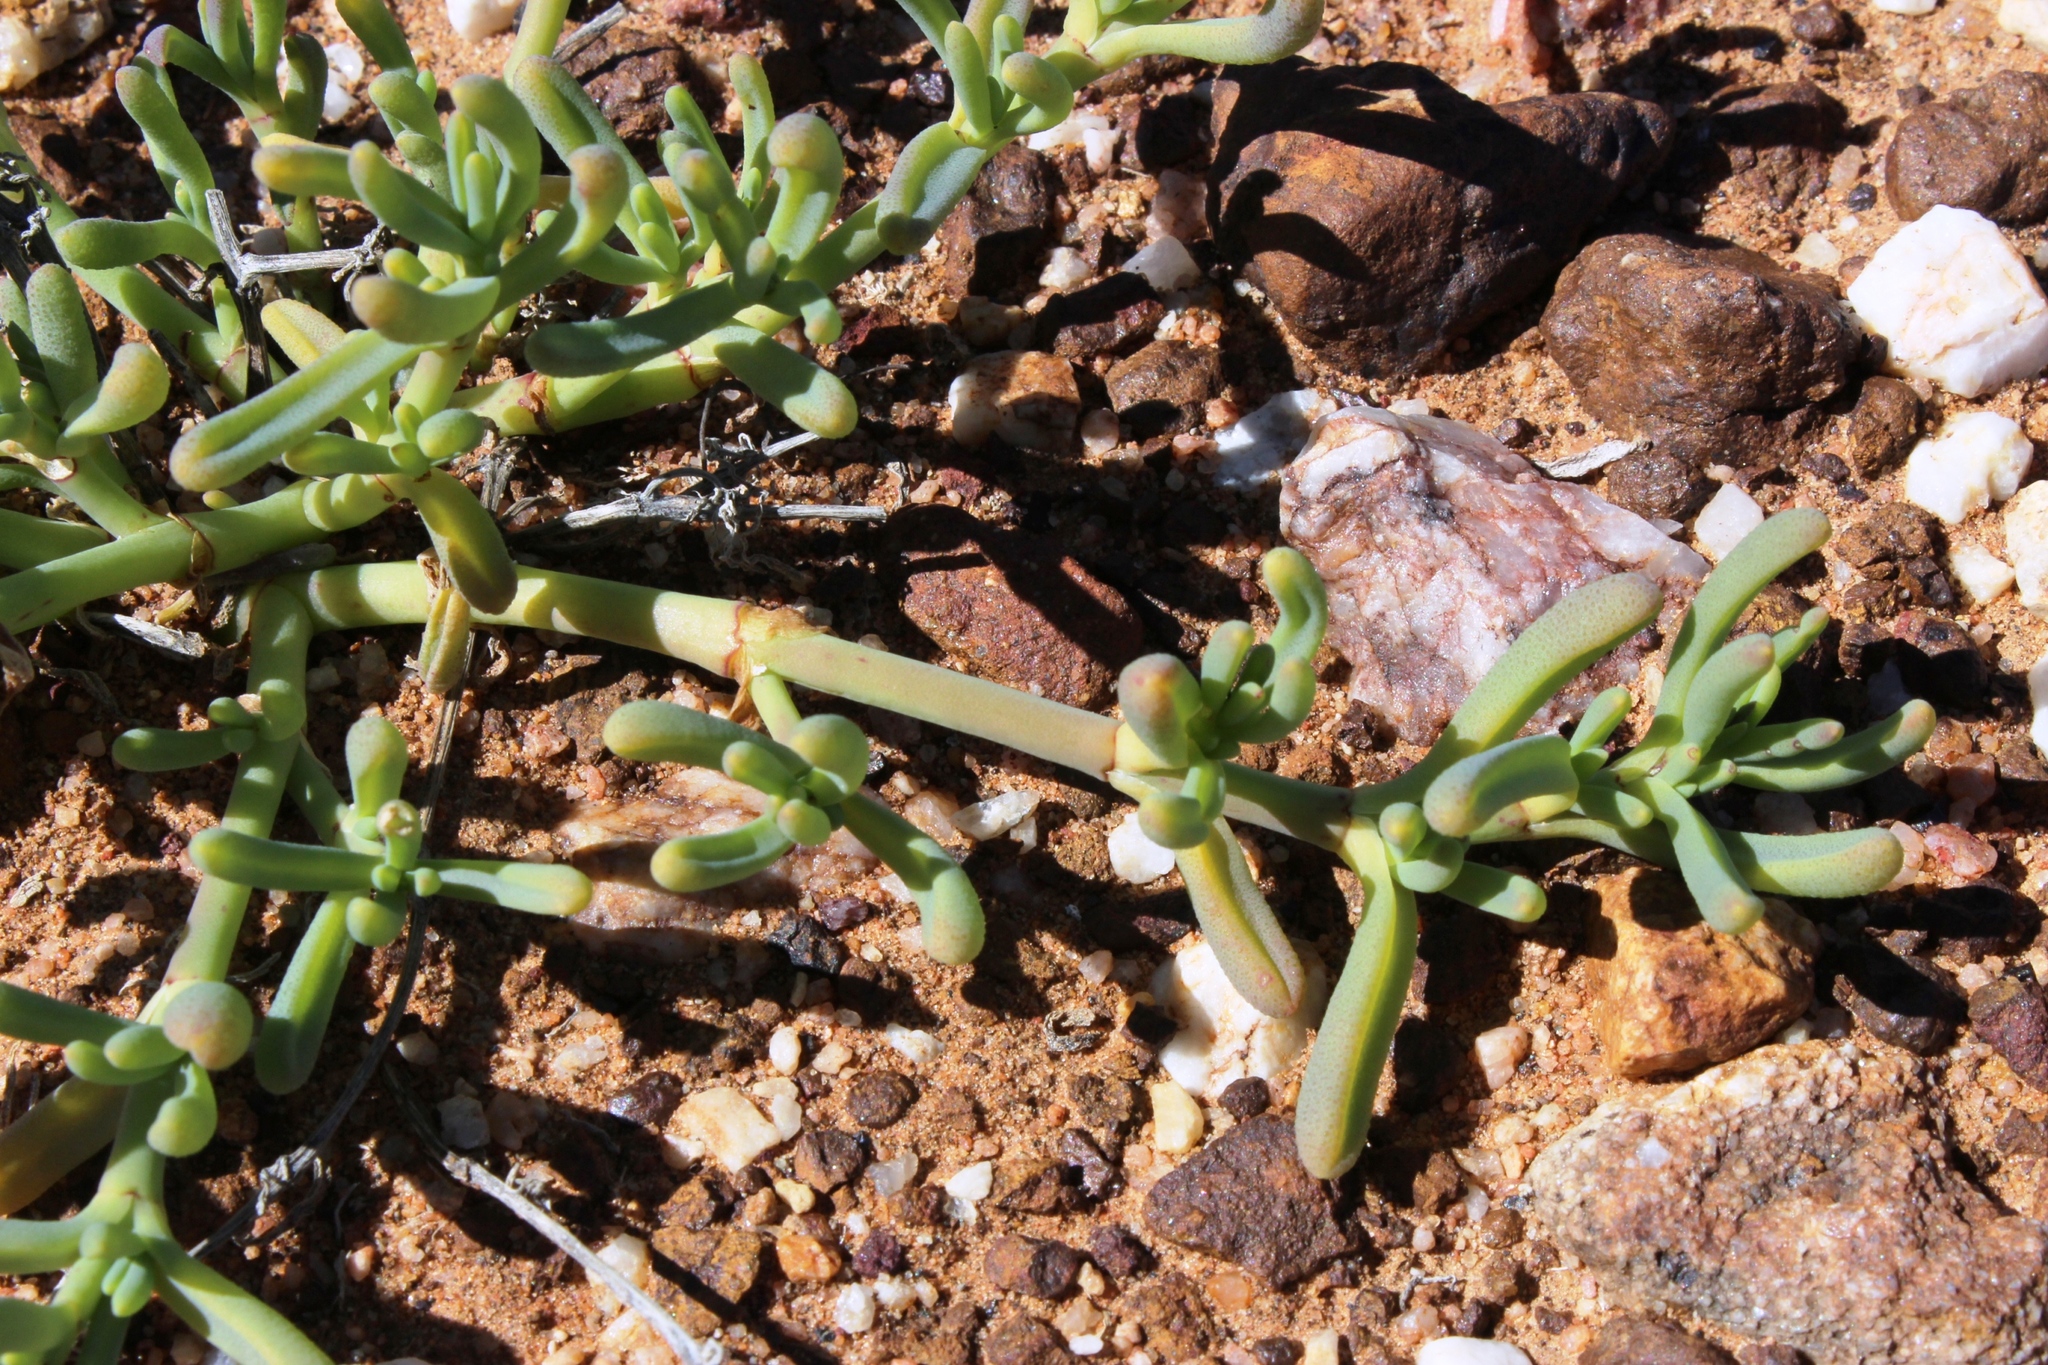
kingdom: Plantae
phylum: Tracheophyta
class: Magnoliopsida
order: Caryophyllales
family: Aizoaceae
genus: Mesembryanthemum
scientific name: Mesembryanthemum rapaceum
